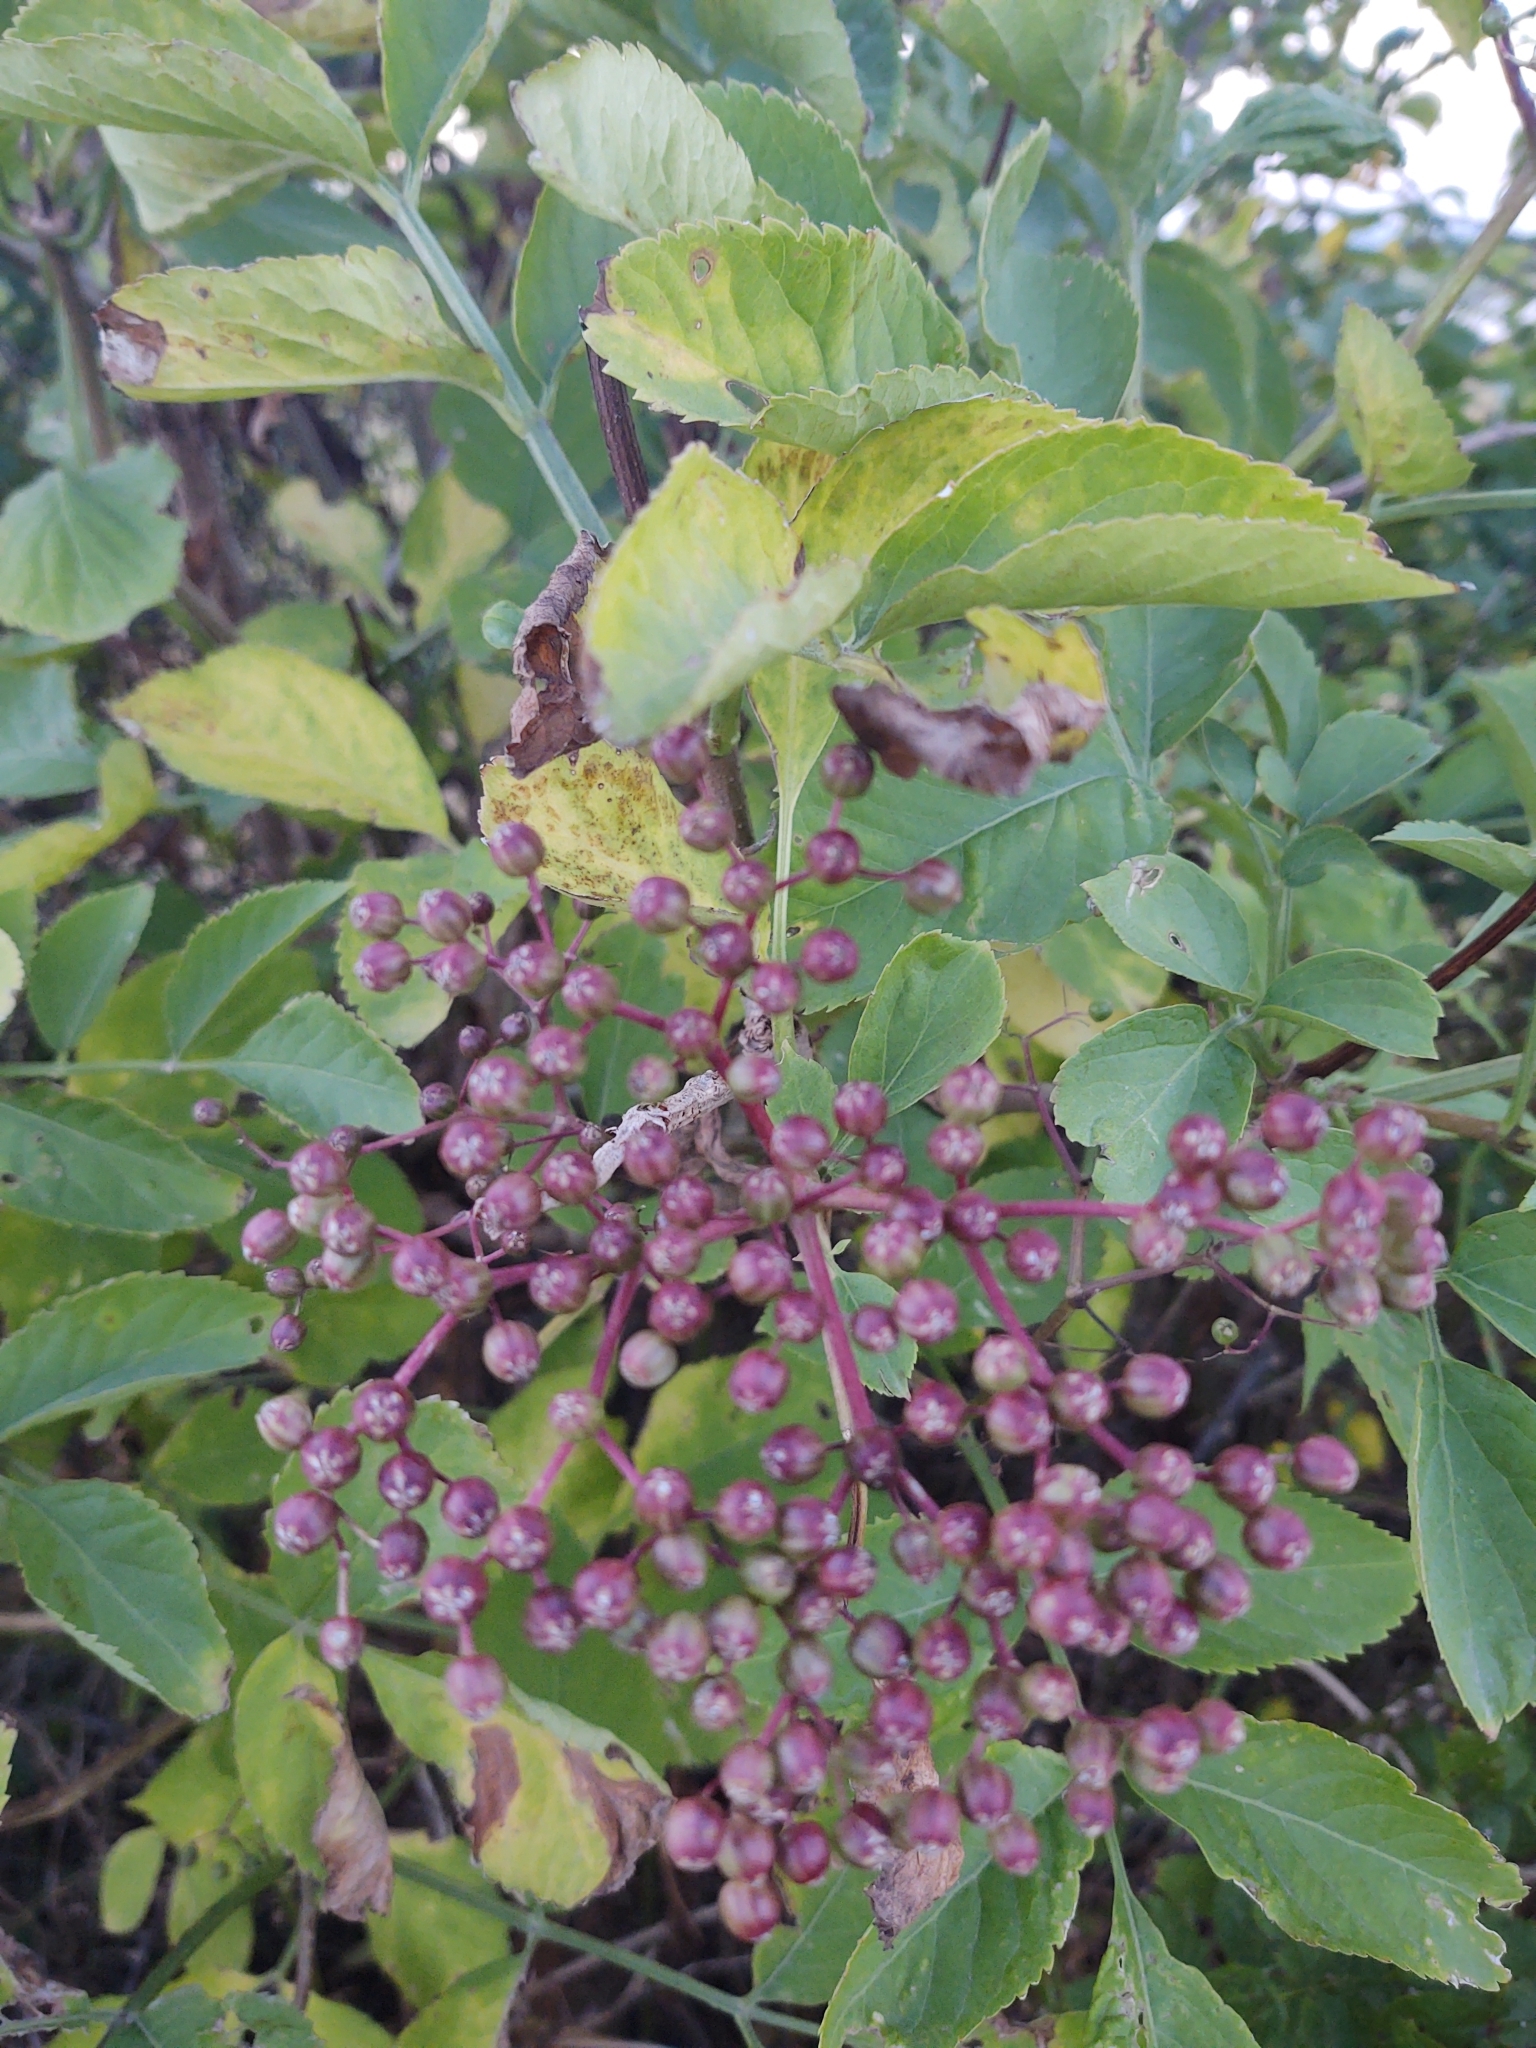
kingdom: Plantae
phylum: Tracheophyta
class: Magnoliopsida
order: Dipsacales
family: Viburnaceae
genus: Sambucus
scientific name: Sambucus nigra
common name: Elder
